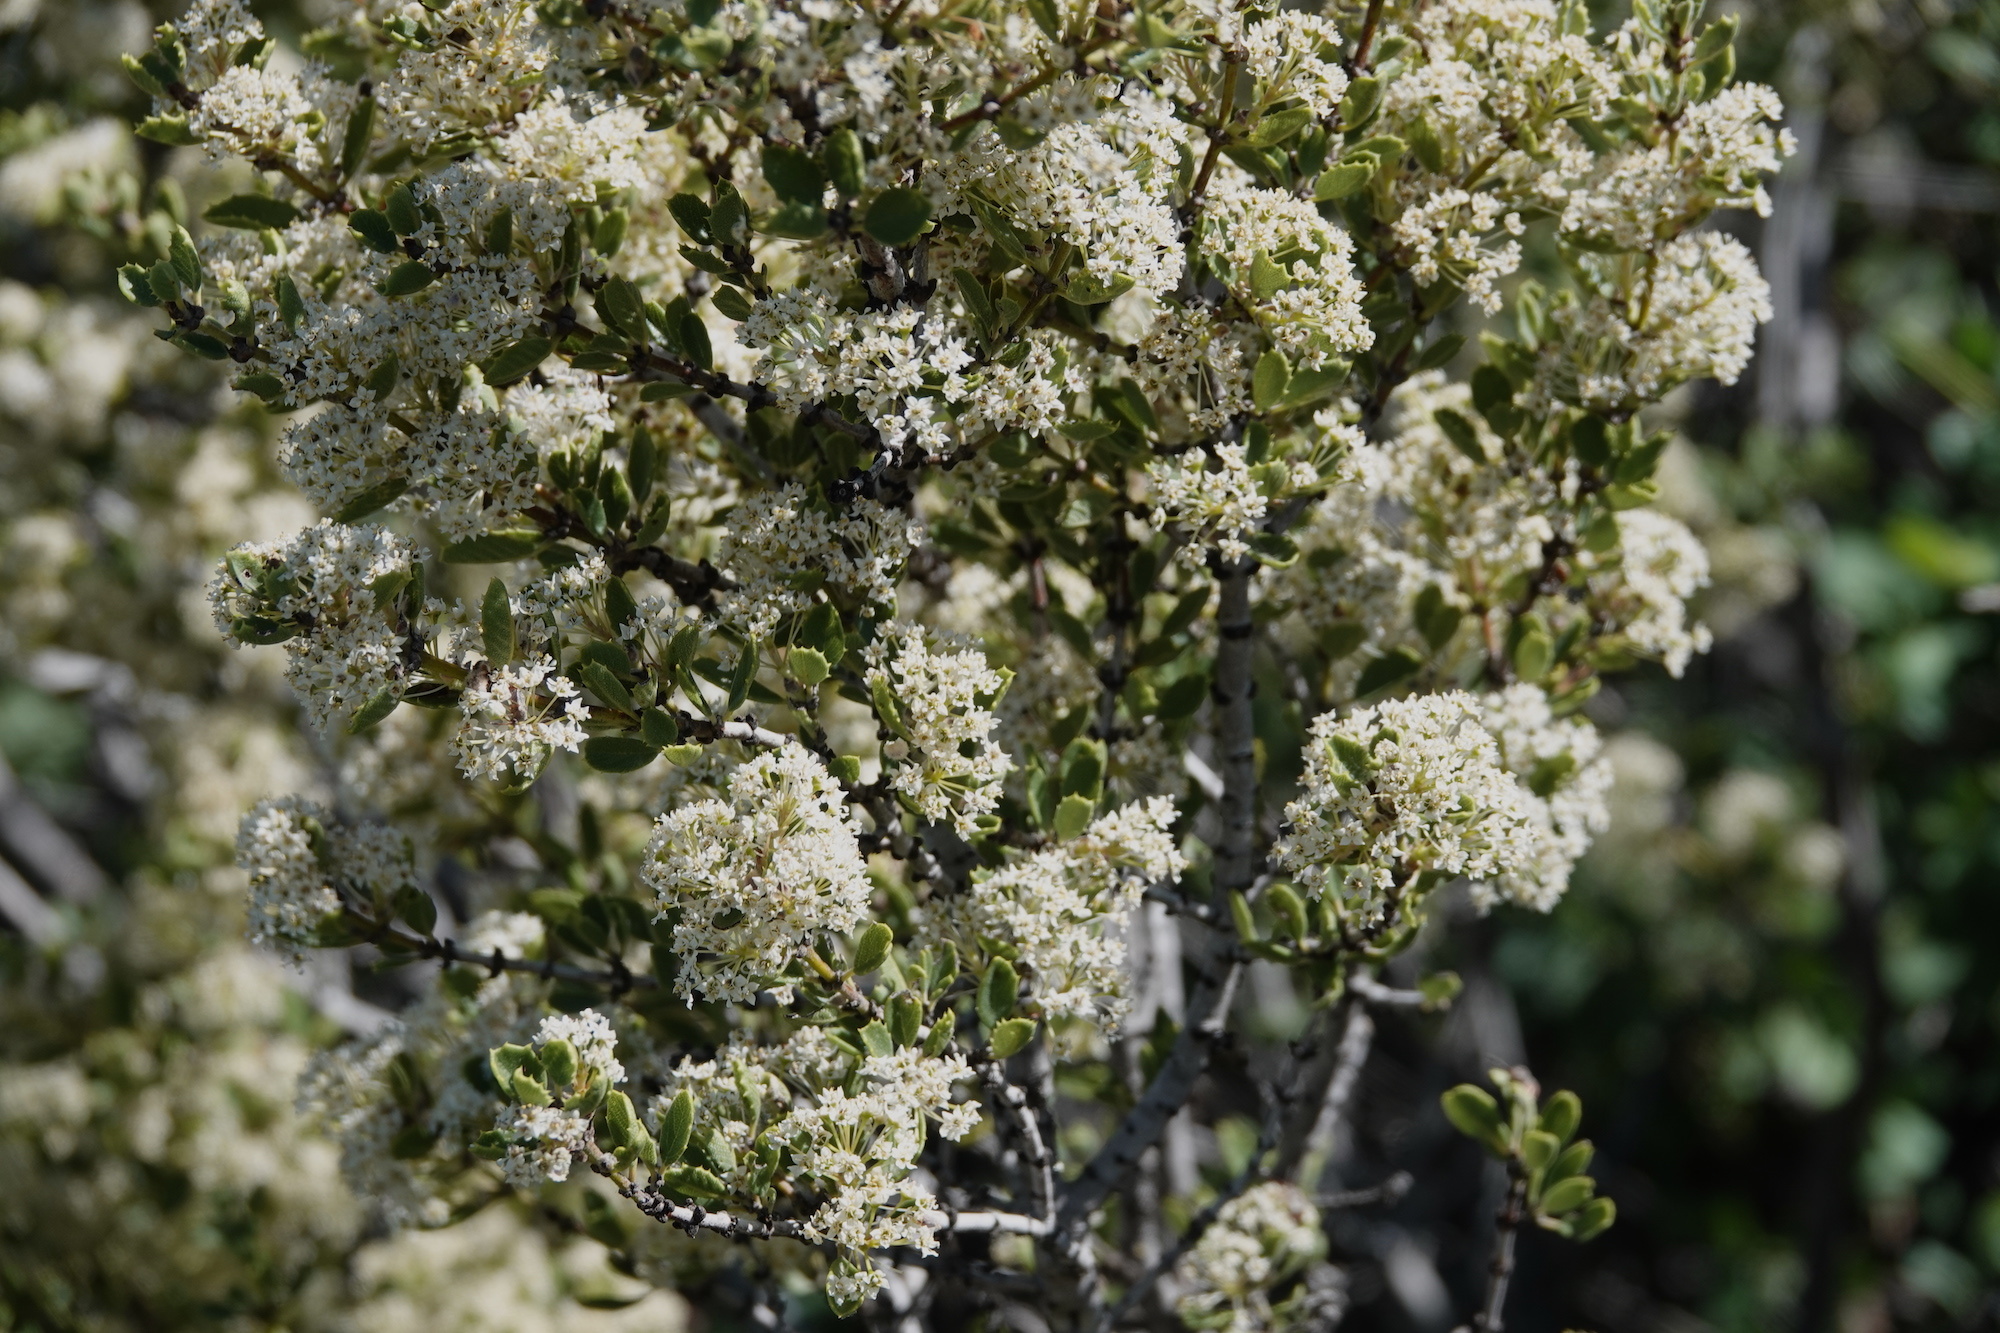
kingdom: Plantae
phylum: Tracheophyta
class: Magnoliopsida
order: Rosales
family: Rhamnaceae
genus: Ceanothus
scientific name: Ceanothus perplexans
